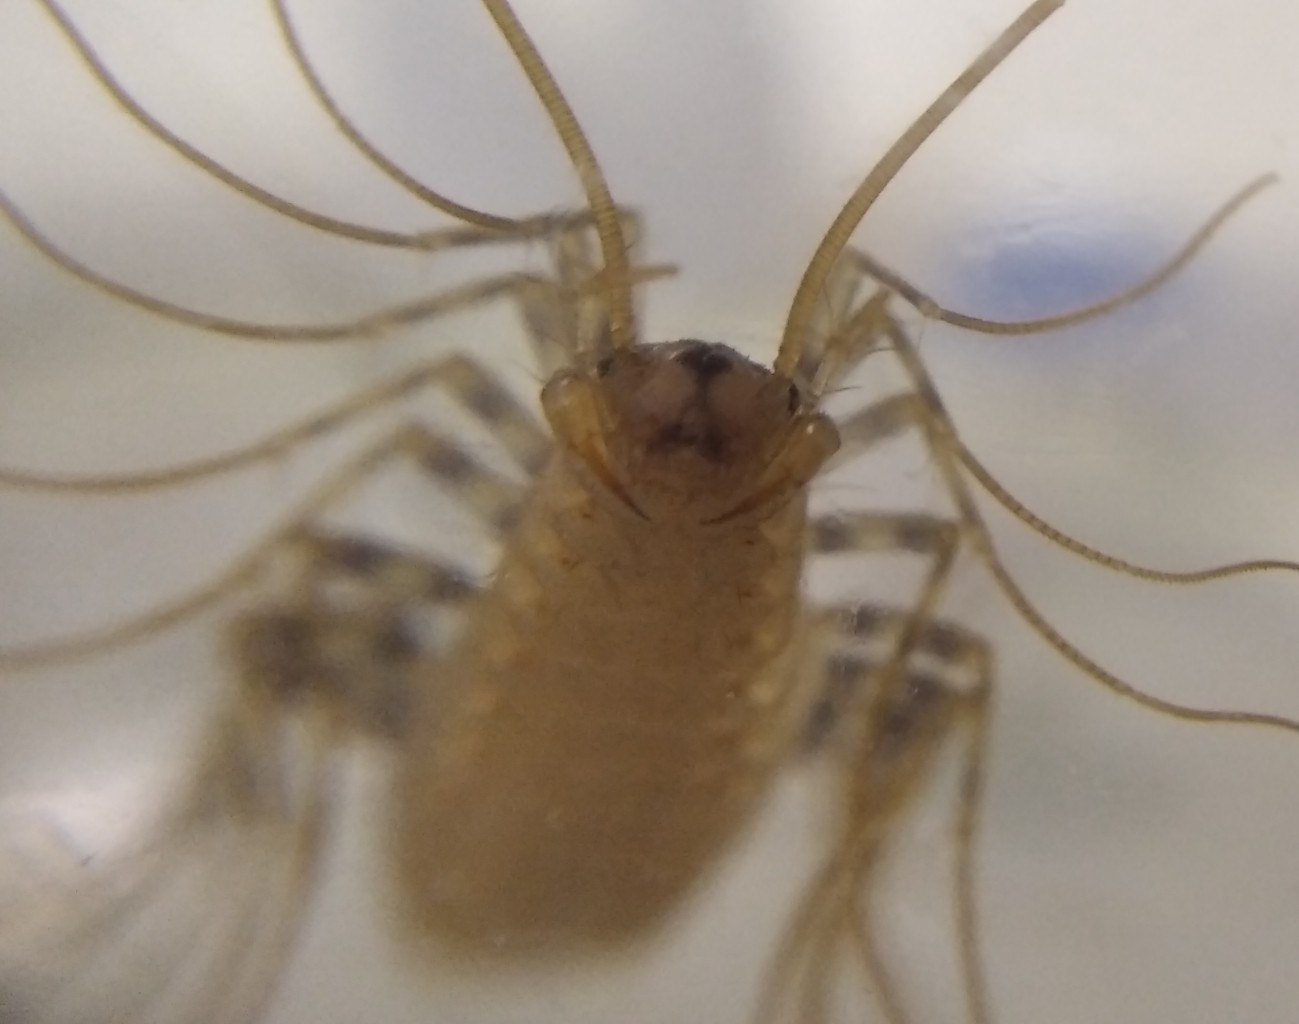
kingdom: Animalia
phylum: Arthropoda
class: Chilopoda
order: Scutigeromorpha
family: Scutigeridae
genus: Scutigera
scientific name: Scutigera coleoptrata
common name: House centipede
